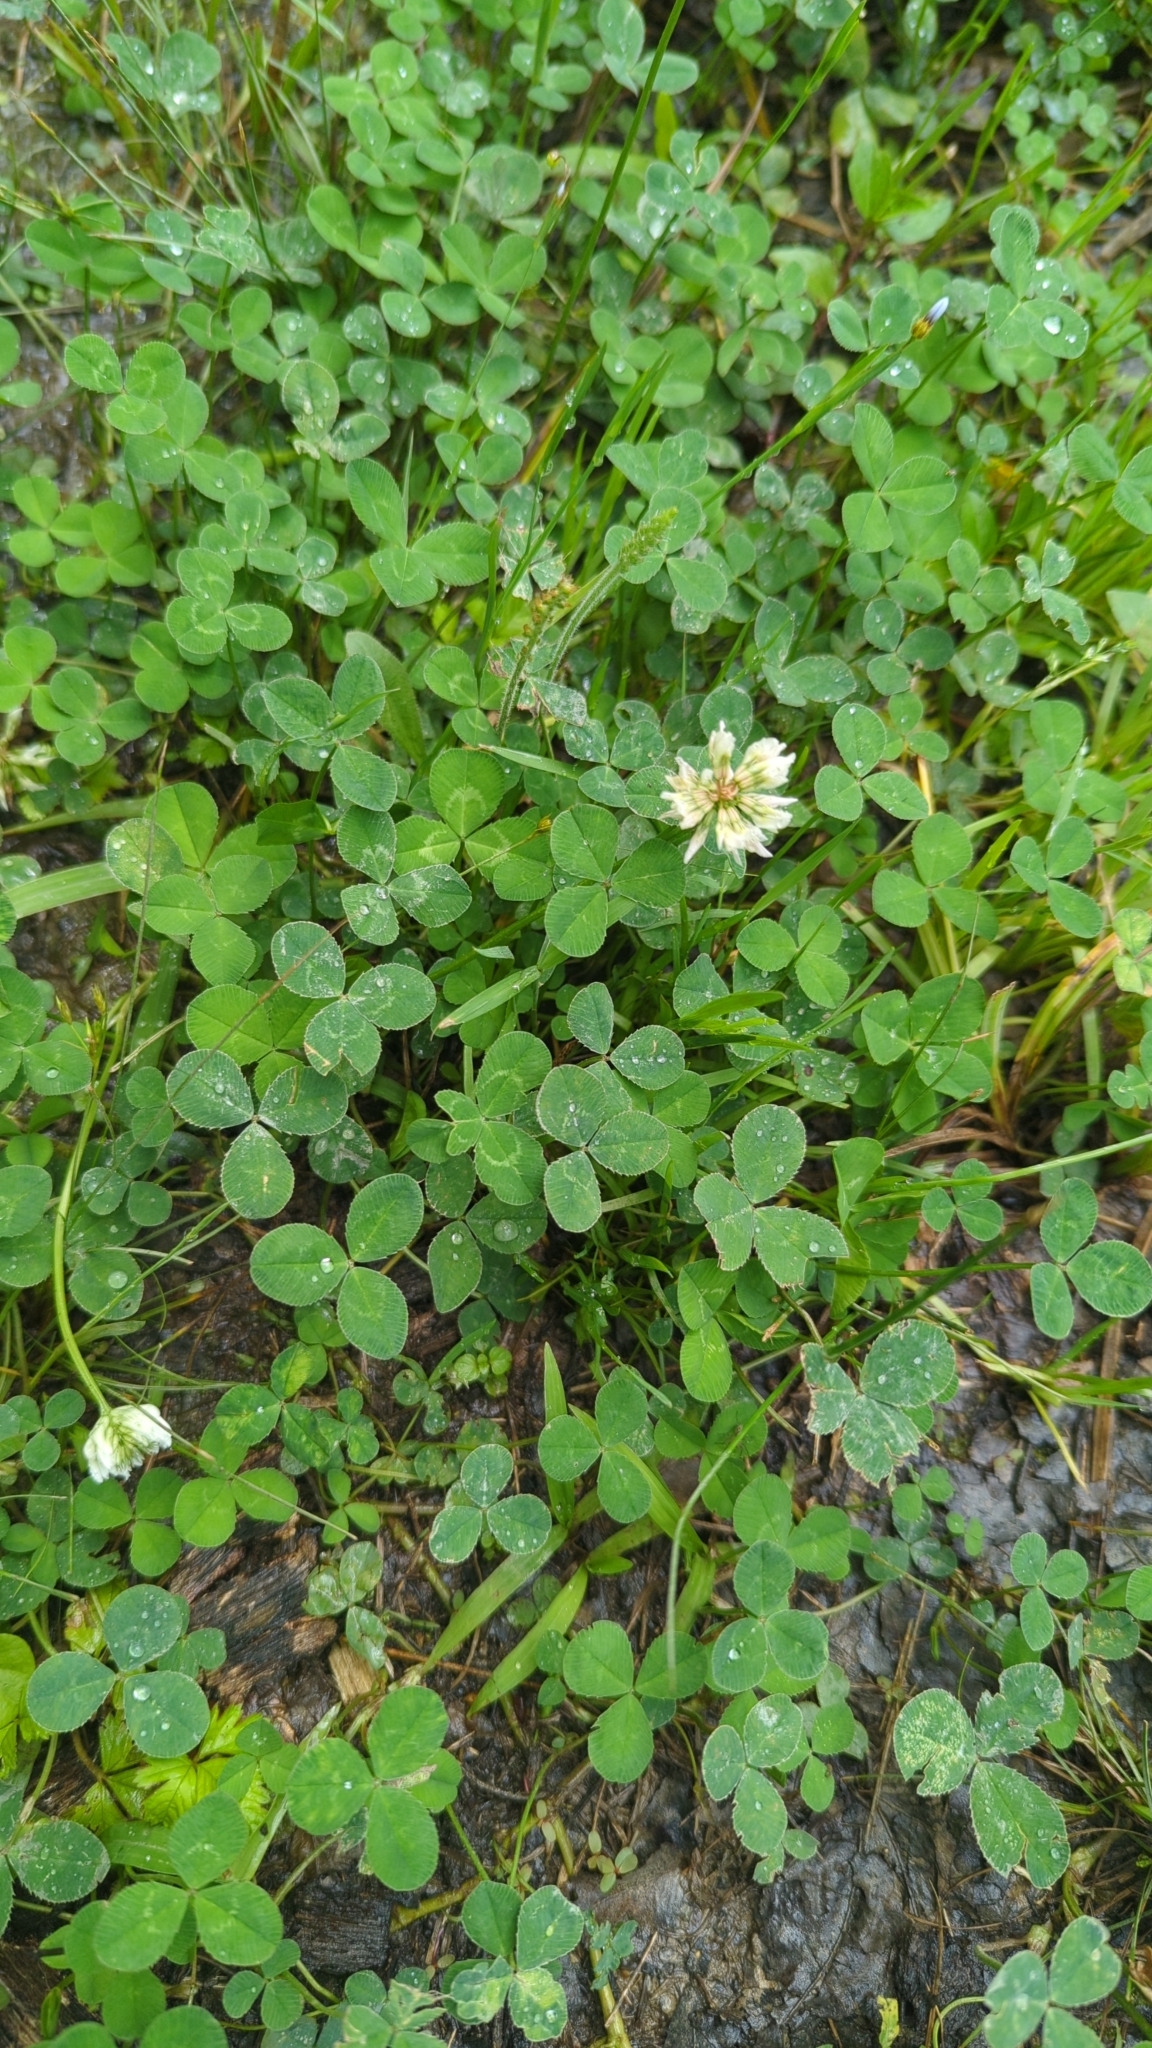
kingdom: Plantae
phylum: Tracheophyta
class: Magnoliopsida
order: Fabales
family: Fabaceae
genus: Trifolium
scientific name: Trifolium repens
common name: White clover
